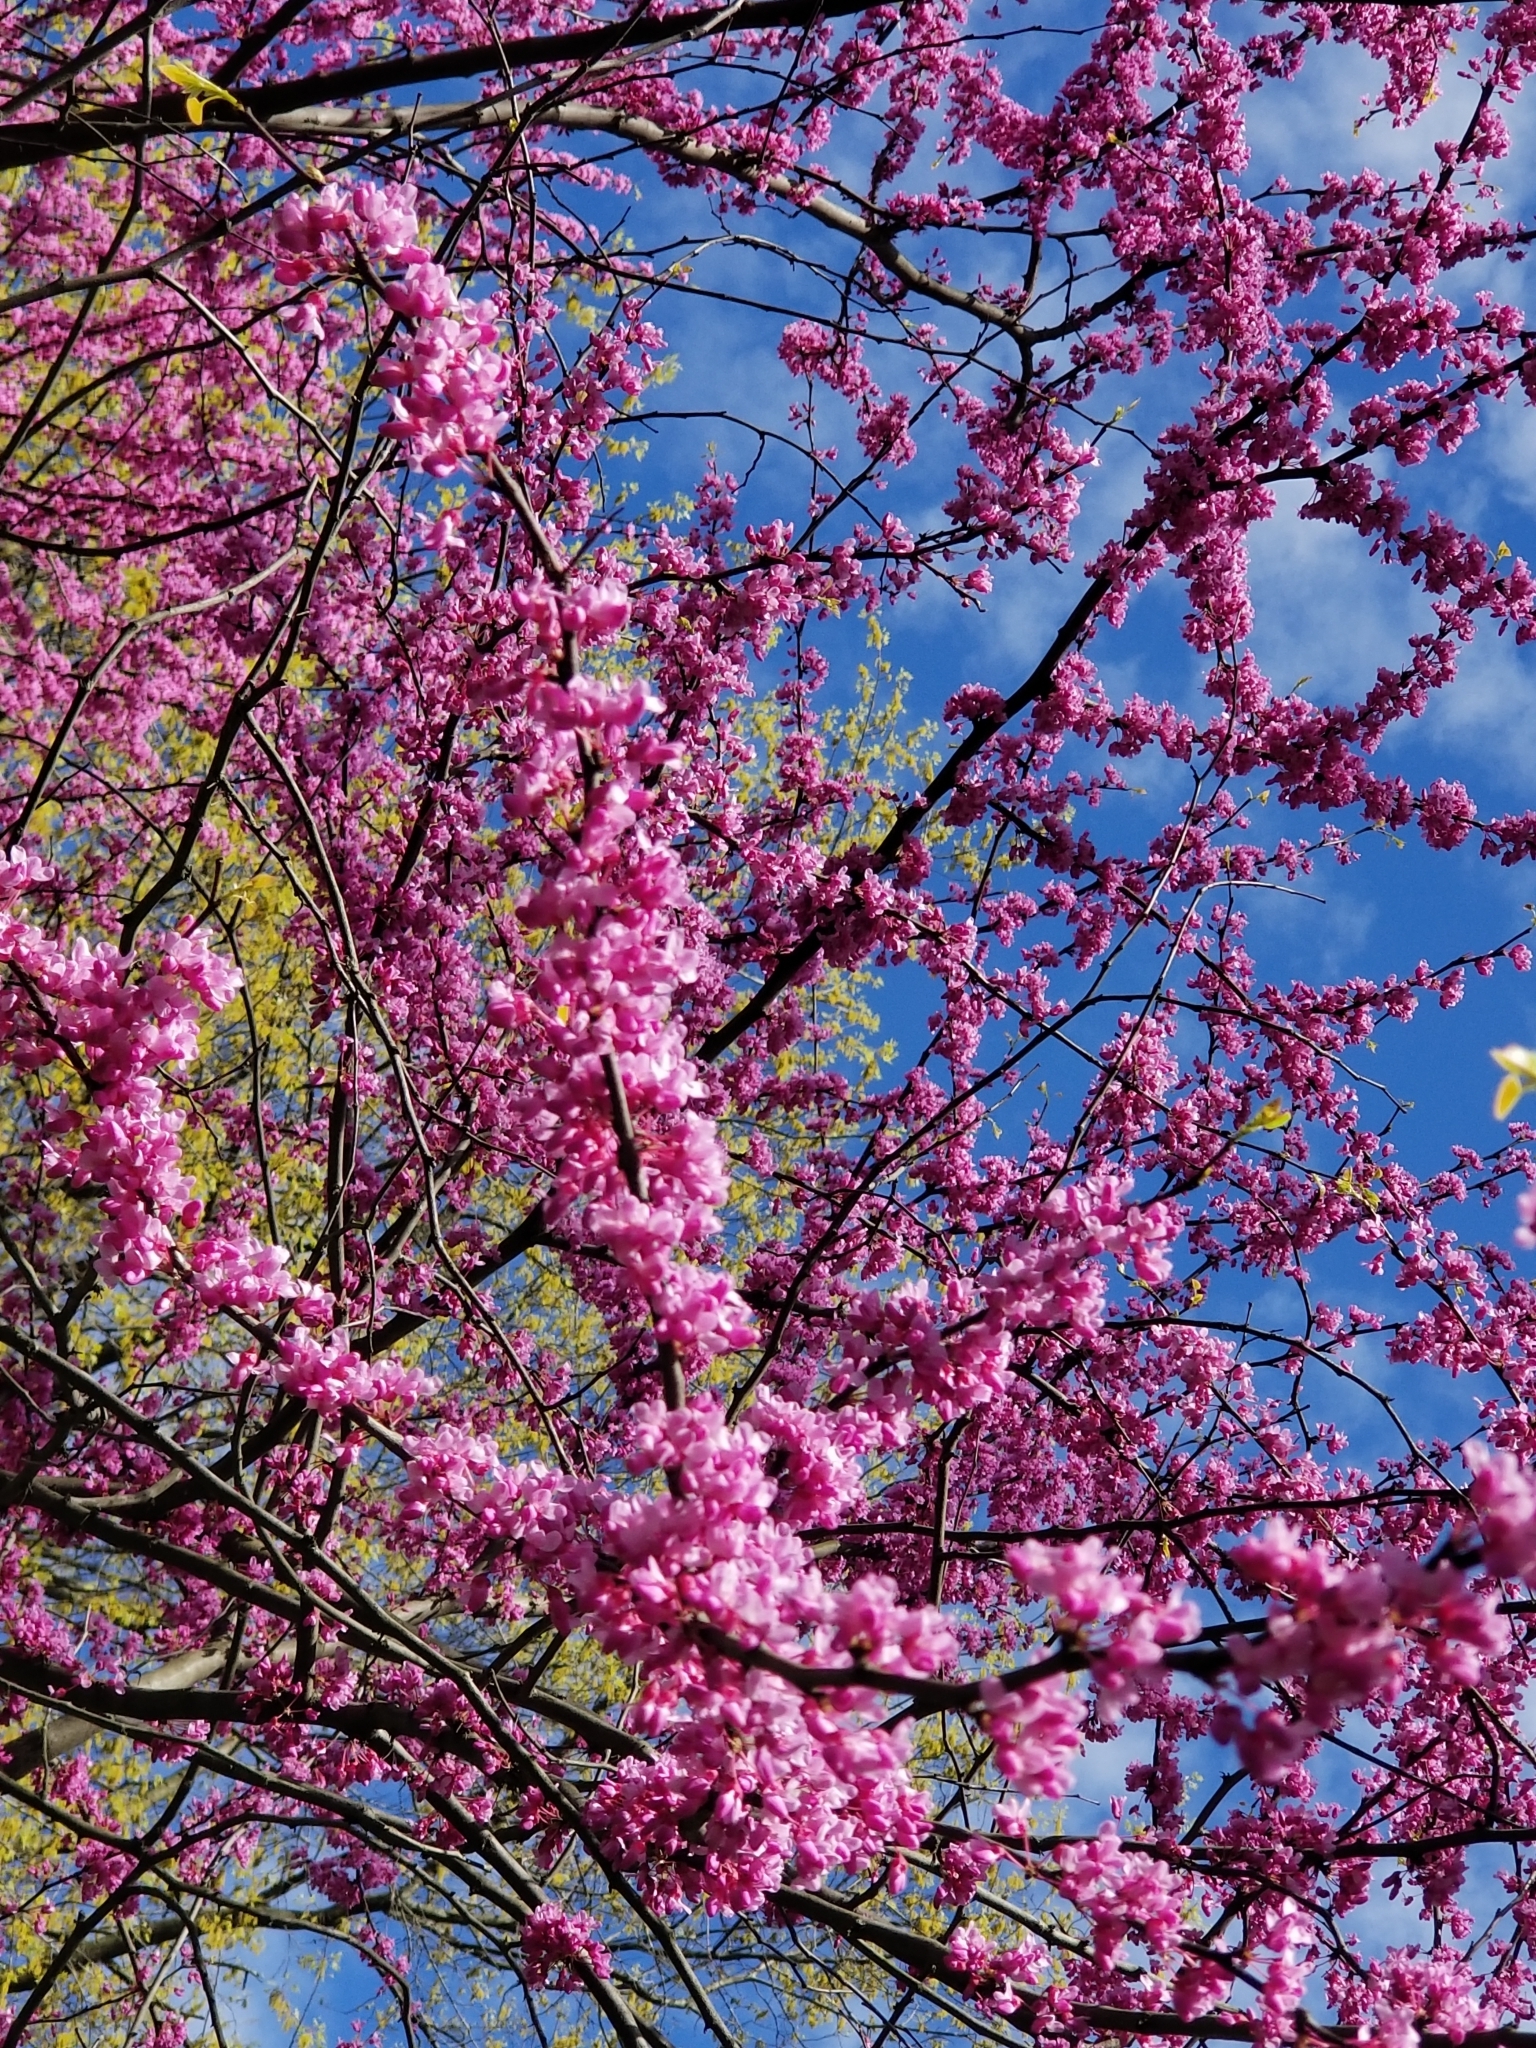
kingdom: Plantae
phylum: Tracheophyta
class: Magnoliopsida
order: Fabales
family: Fabaceae
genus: Cercis
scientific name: Cercis canadensis
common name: Eastern redbud
